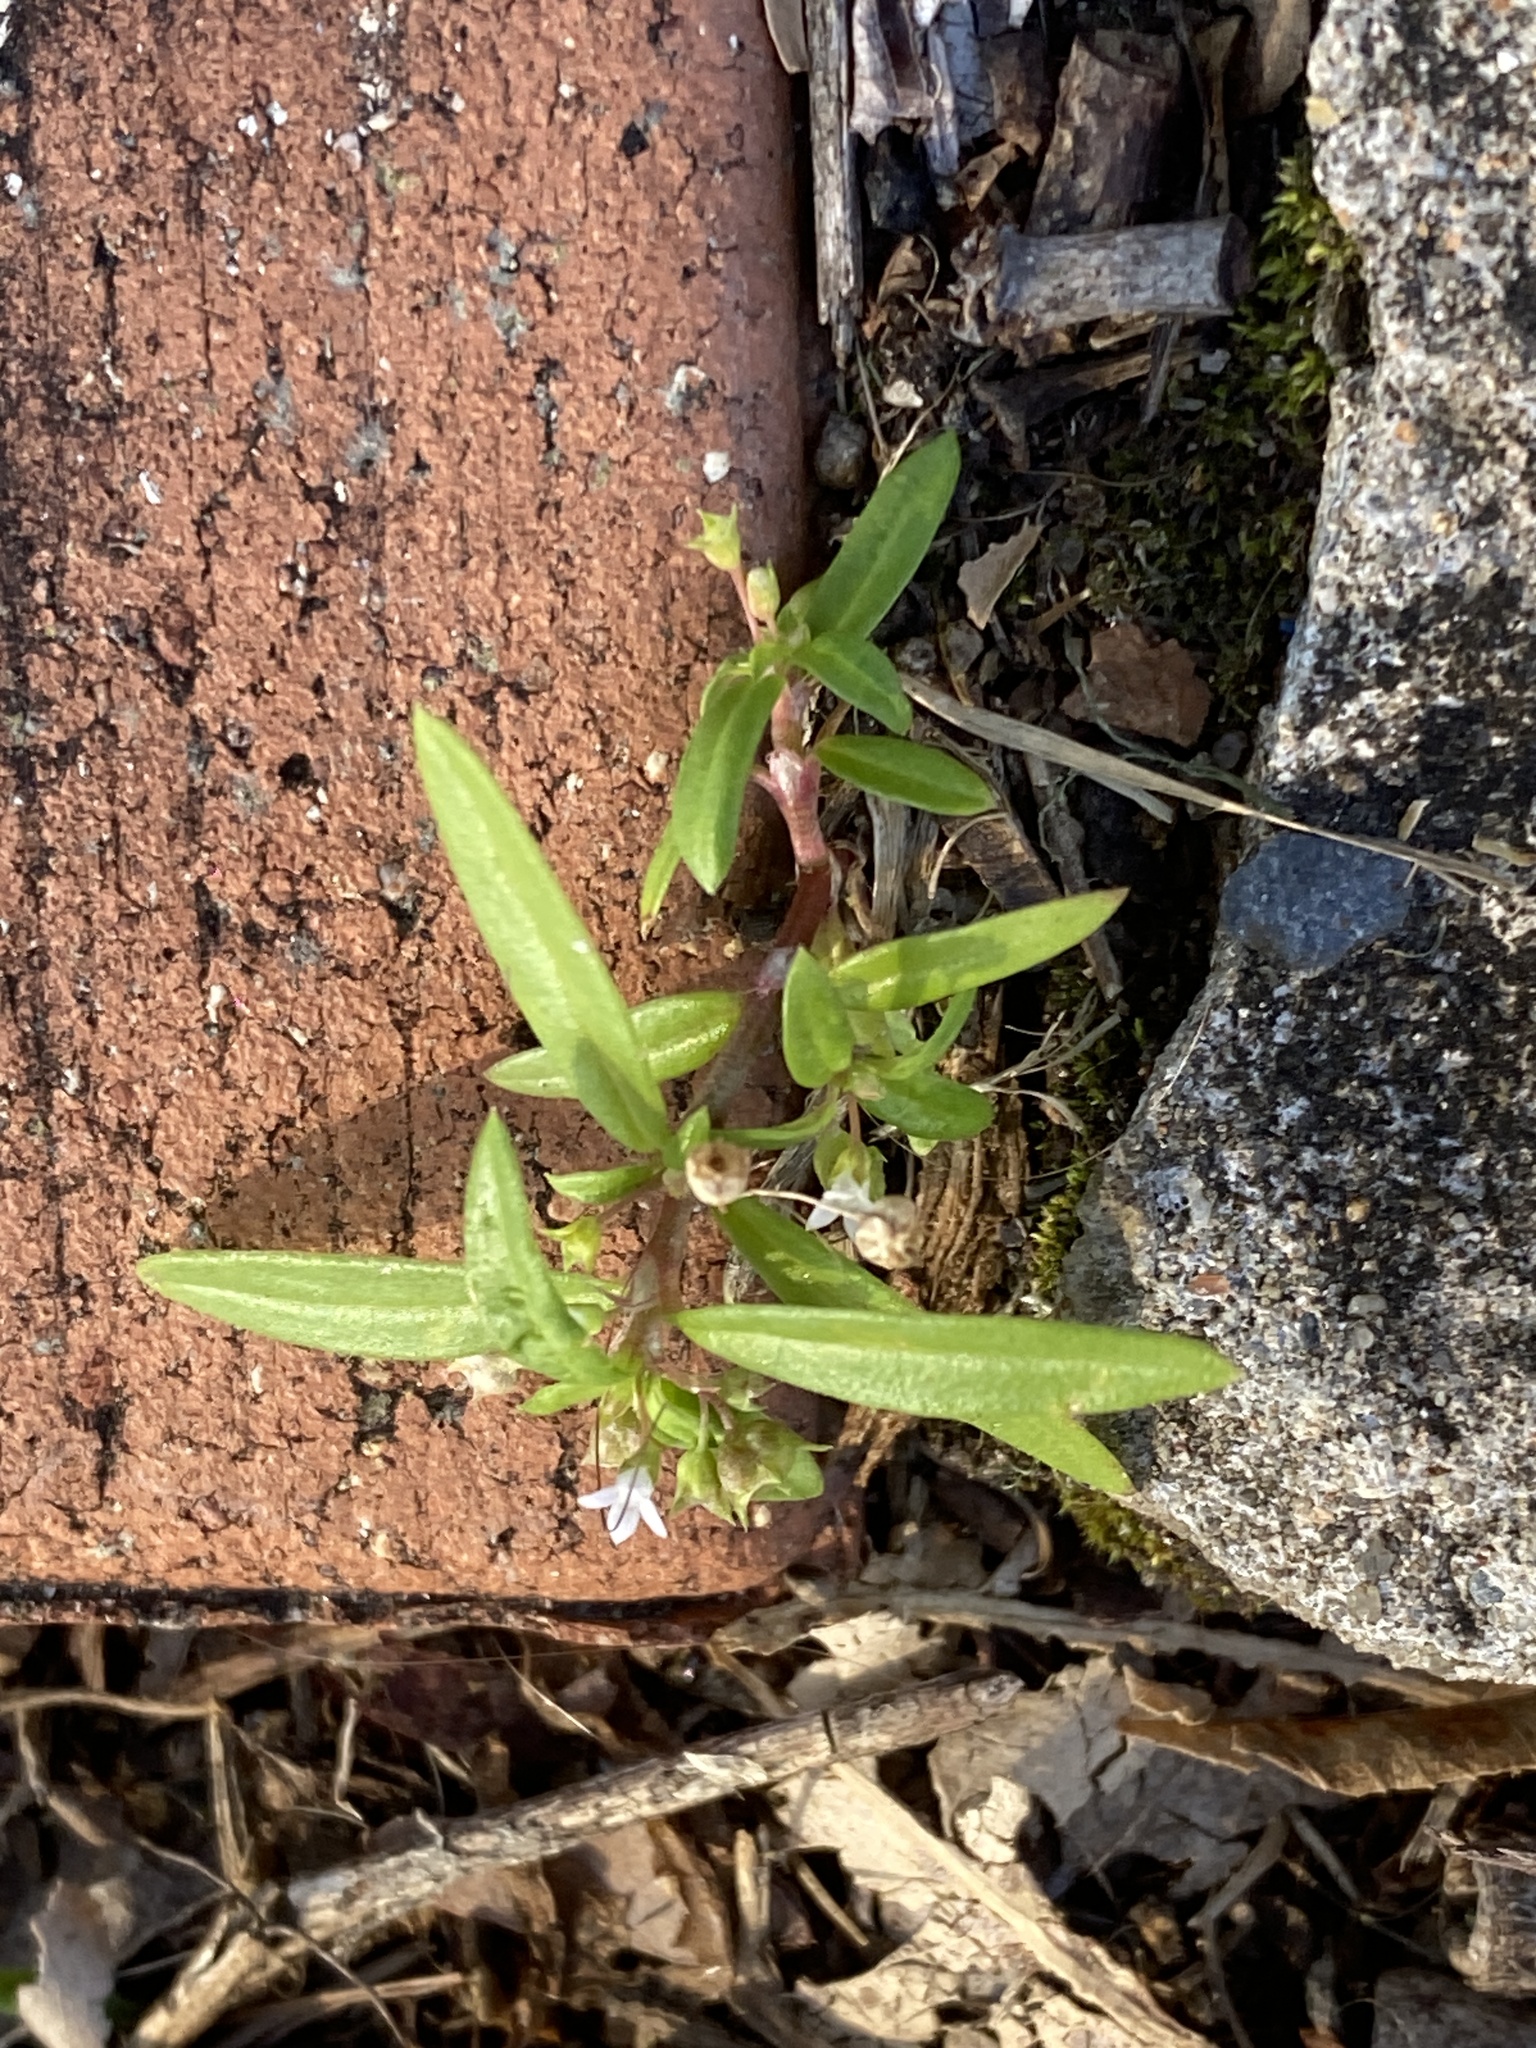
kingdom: Plantae
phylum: Tracheophyta
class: Magnoliopsida
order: Gentianales
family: Rubiaceae
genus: Oldenlandia
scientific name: Oldenlandia corymbosa
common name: Flat-top mille graines
